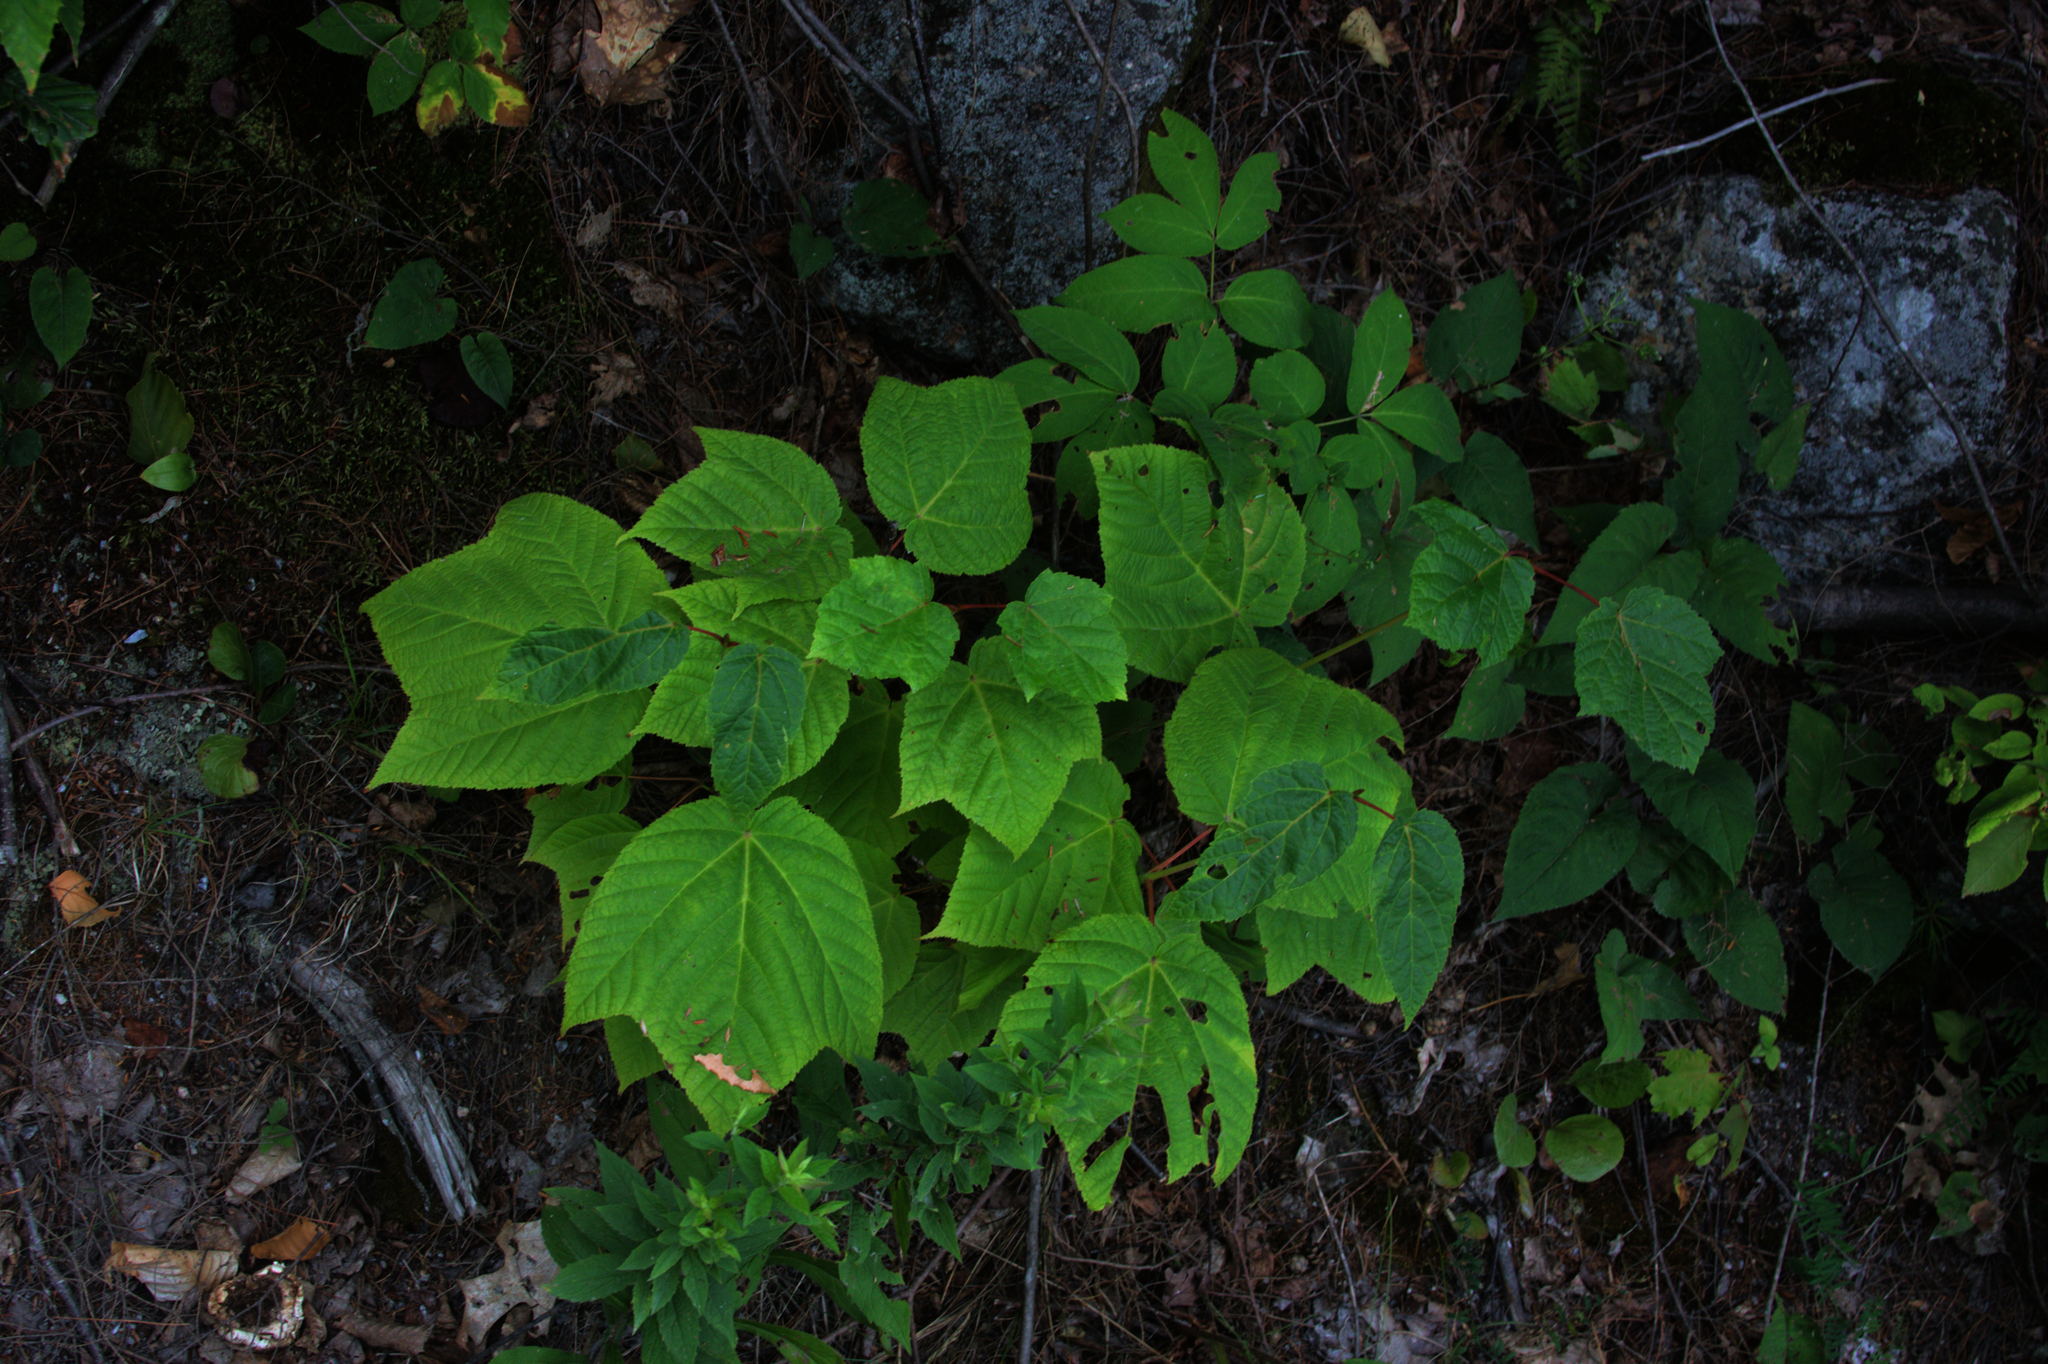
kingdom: Plantae
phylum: Tracheophyta
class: Magnoliopsida
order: Sapindales
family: Sapindaceae
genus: Acer
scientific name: Acer pensylvanicum
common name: Moosewood
